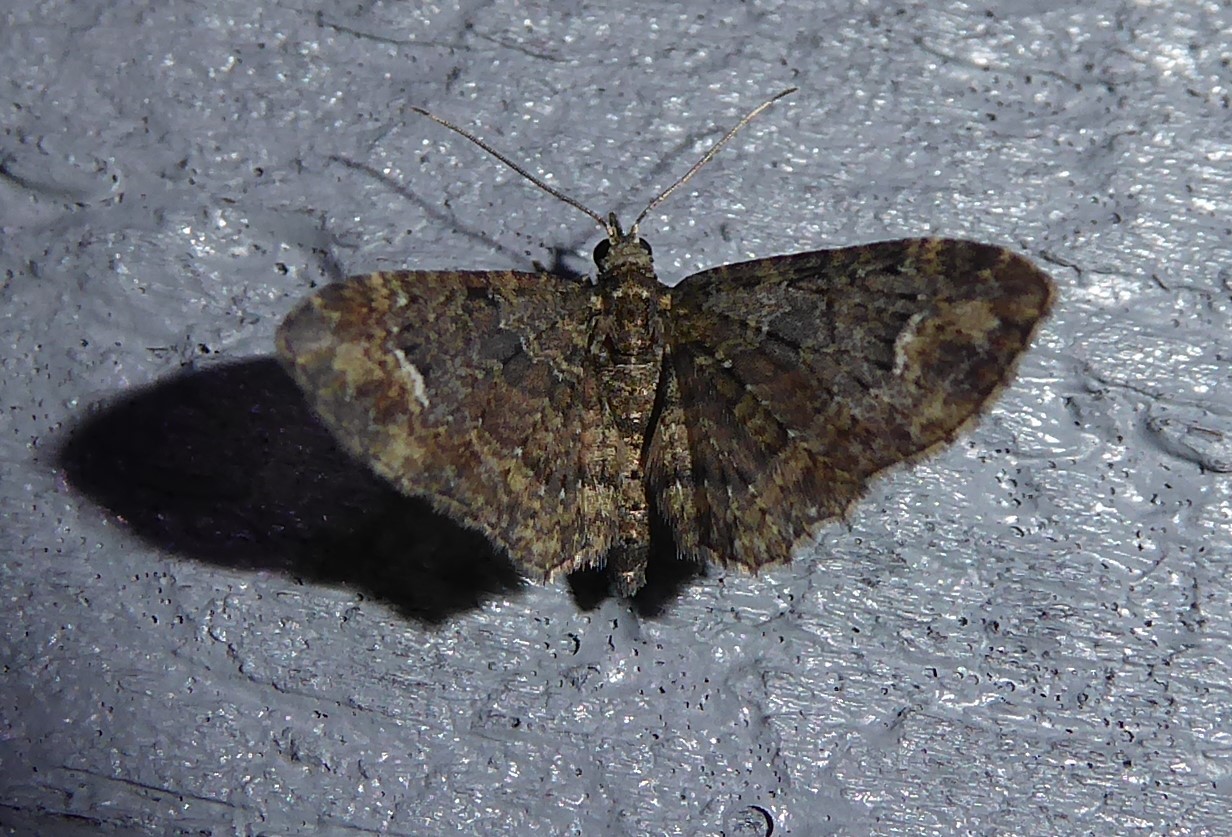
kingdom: Animalia
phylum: Arthropoda
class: Insecta
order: Lepidoptera
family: Geometridae
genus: Pasiphilodes
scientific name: Pasiphilodes testulata
